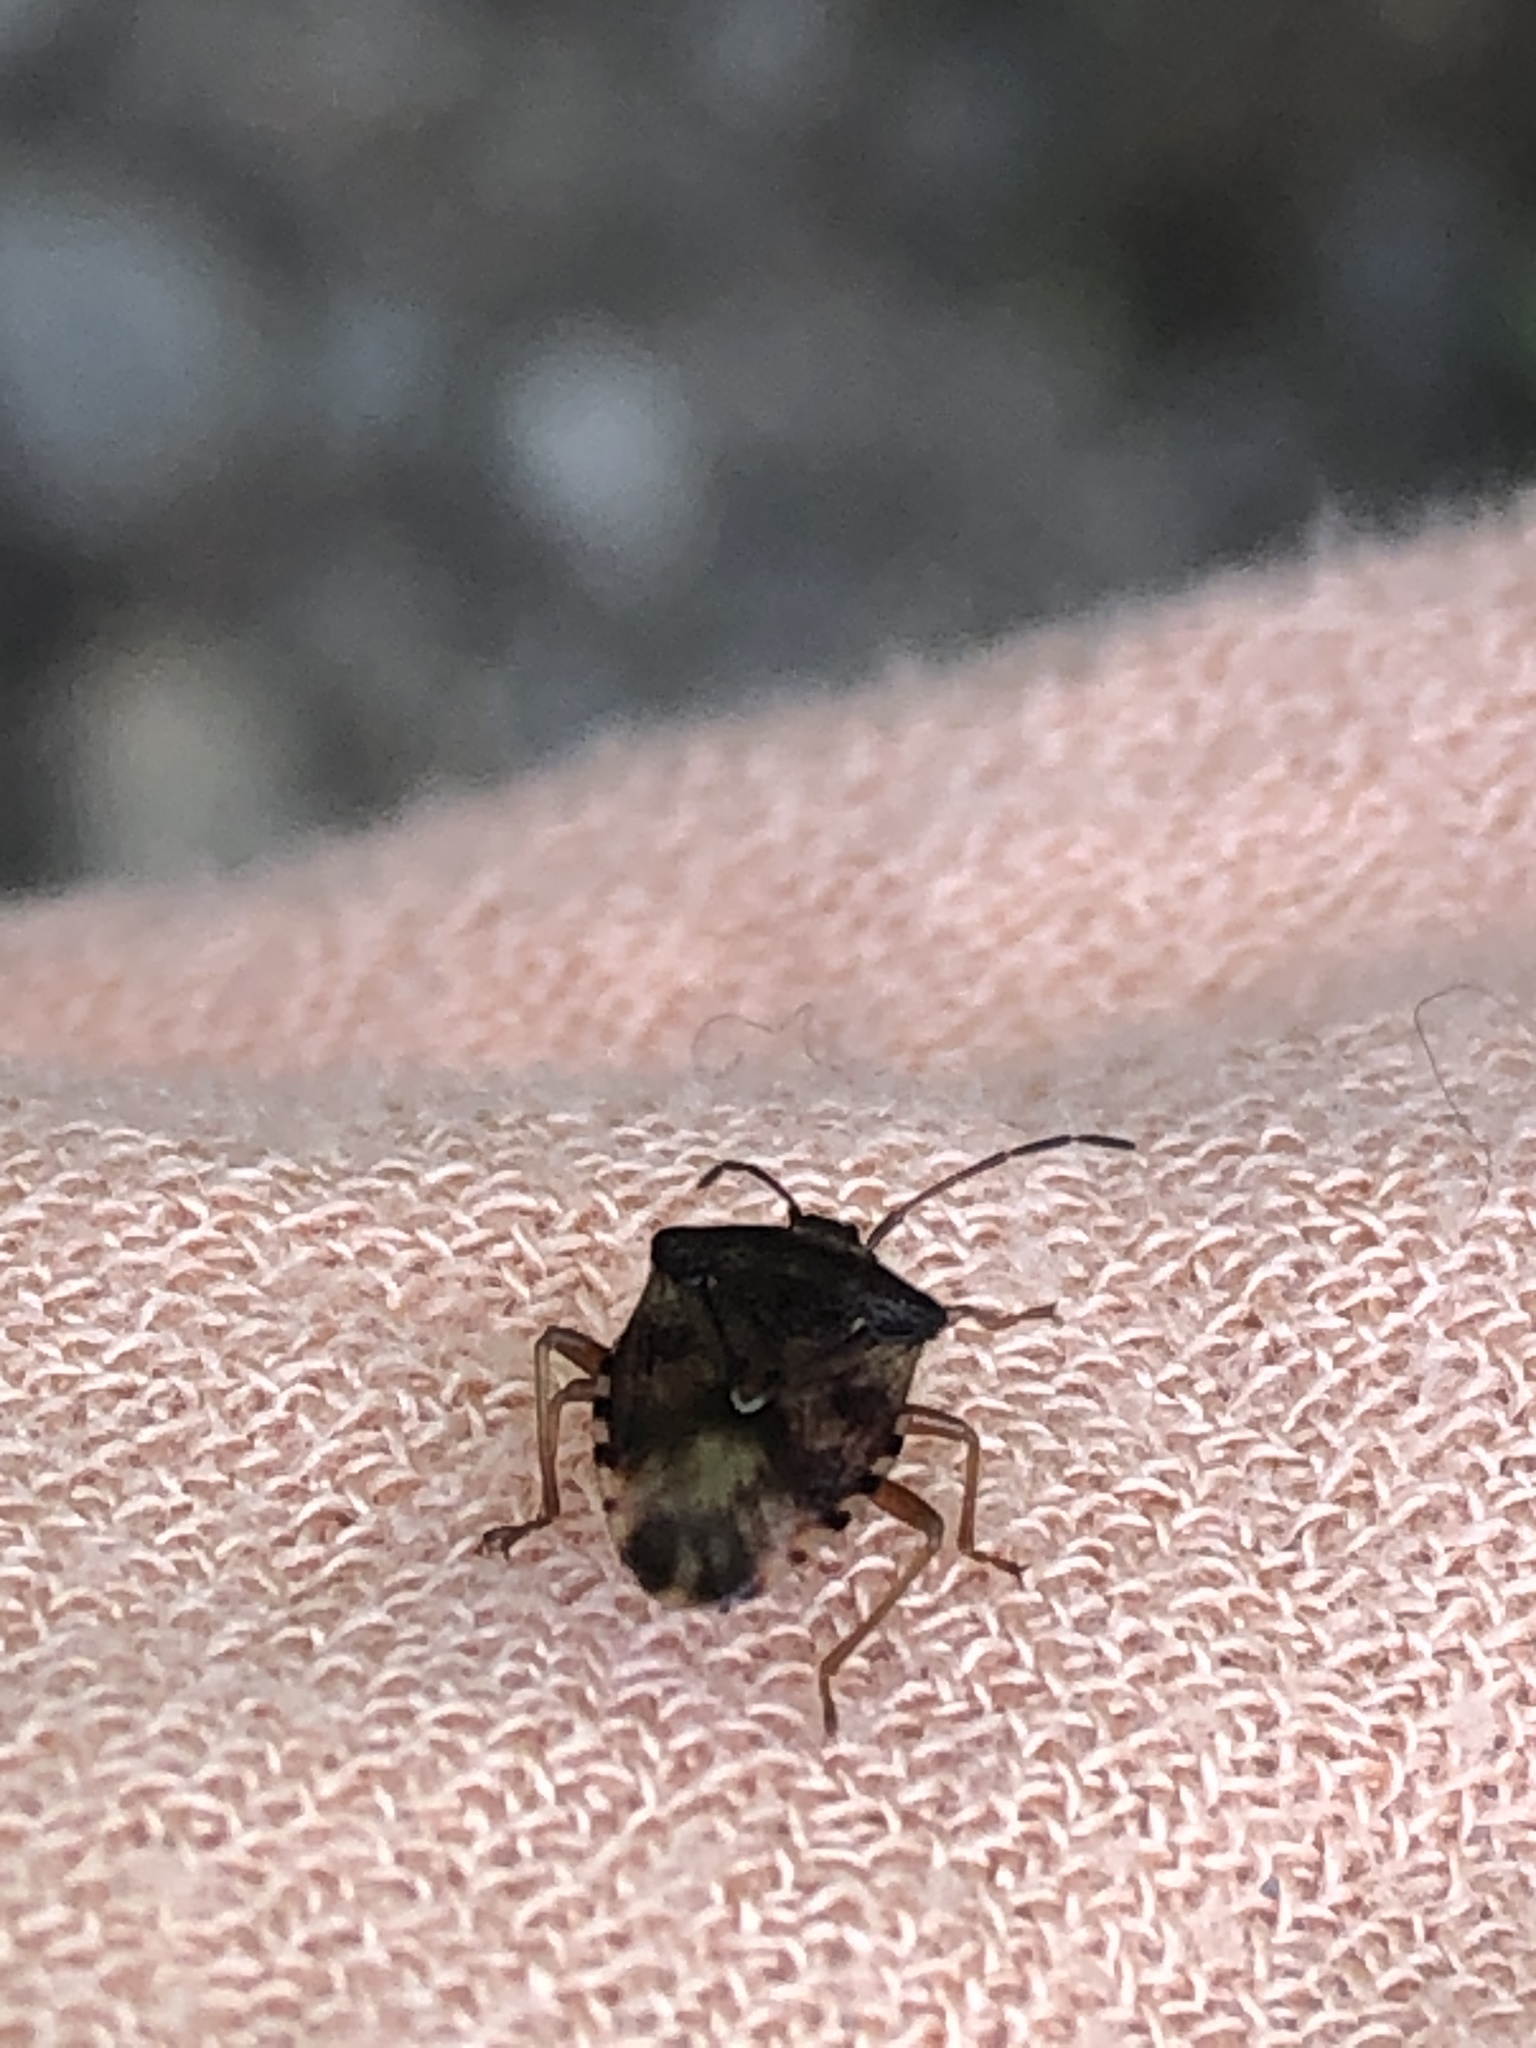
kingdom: Animalia
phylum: Arthropoda
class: Insecta
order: Hemiptera
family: Acanthosomatidae
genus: Elasmucha
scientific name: Elasmucha lateralis
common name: Shield bug
